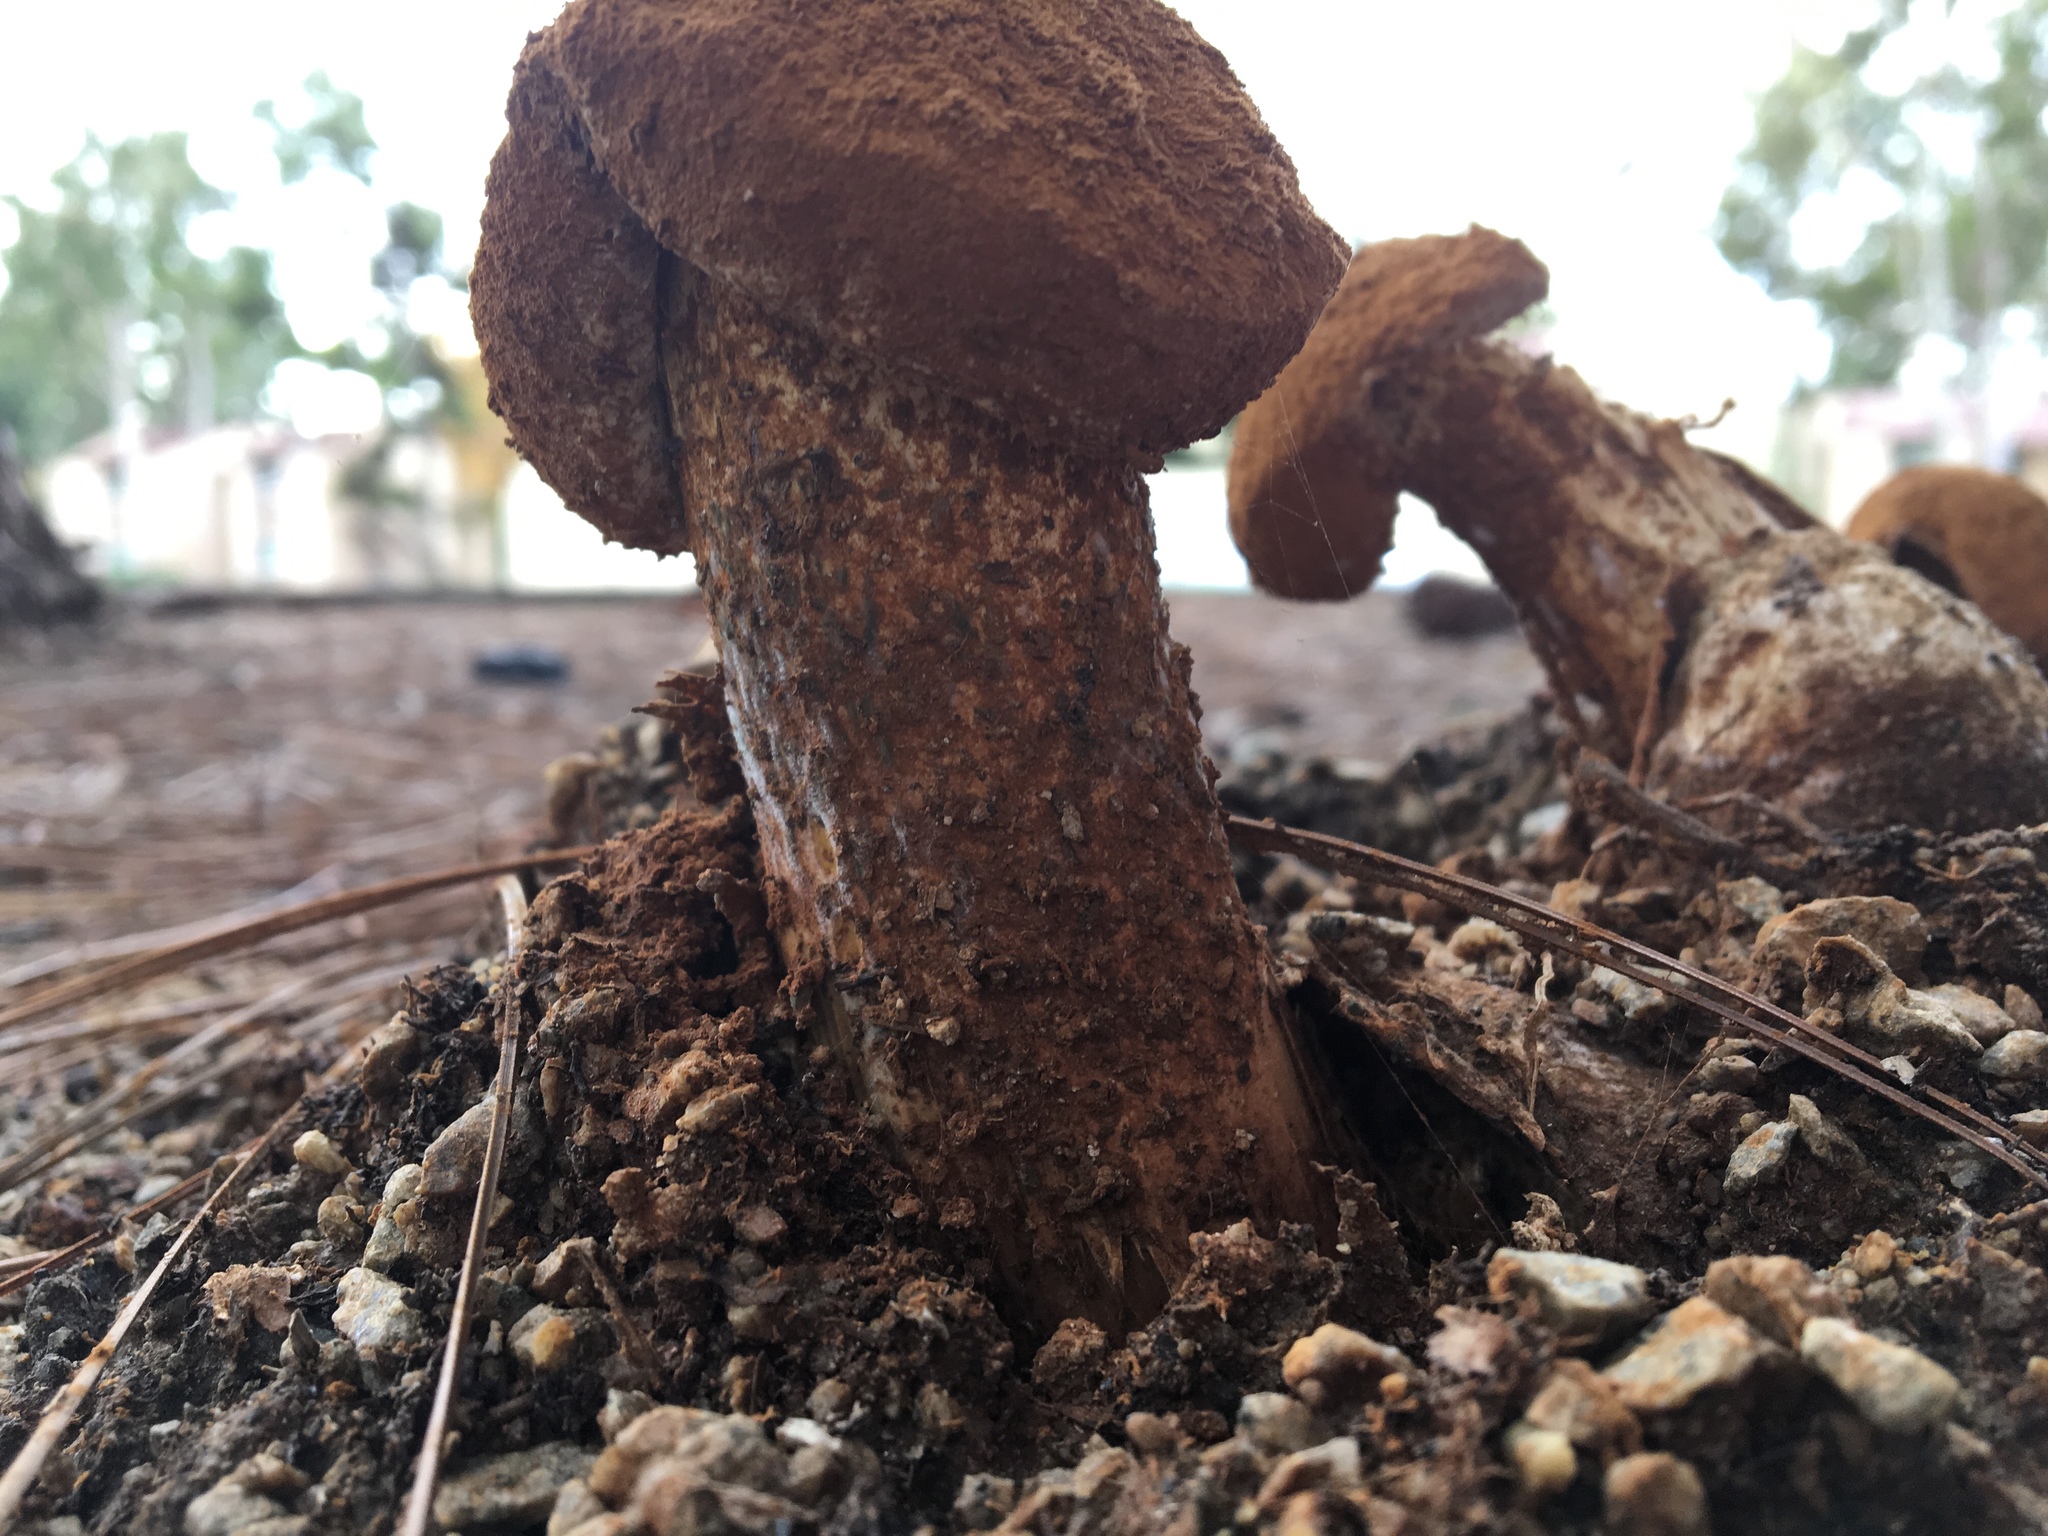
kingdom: Fungi
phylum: Basidiomycota
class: Agaricomycetes
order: Agaricales
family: Agaricaceae
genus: Battarrea
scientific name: Battarrea phalloides
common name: Sandy stiltball
